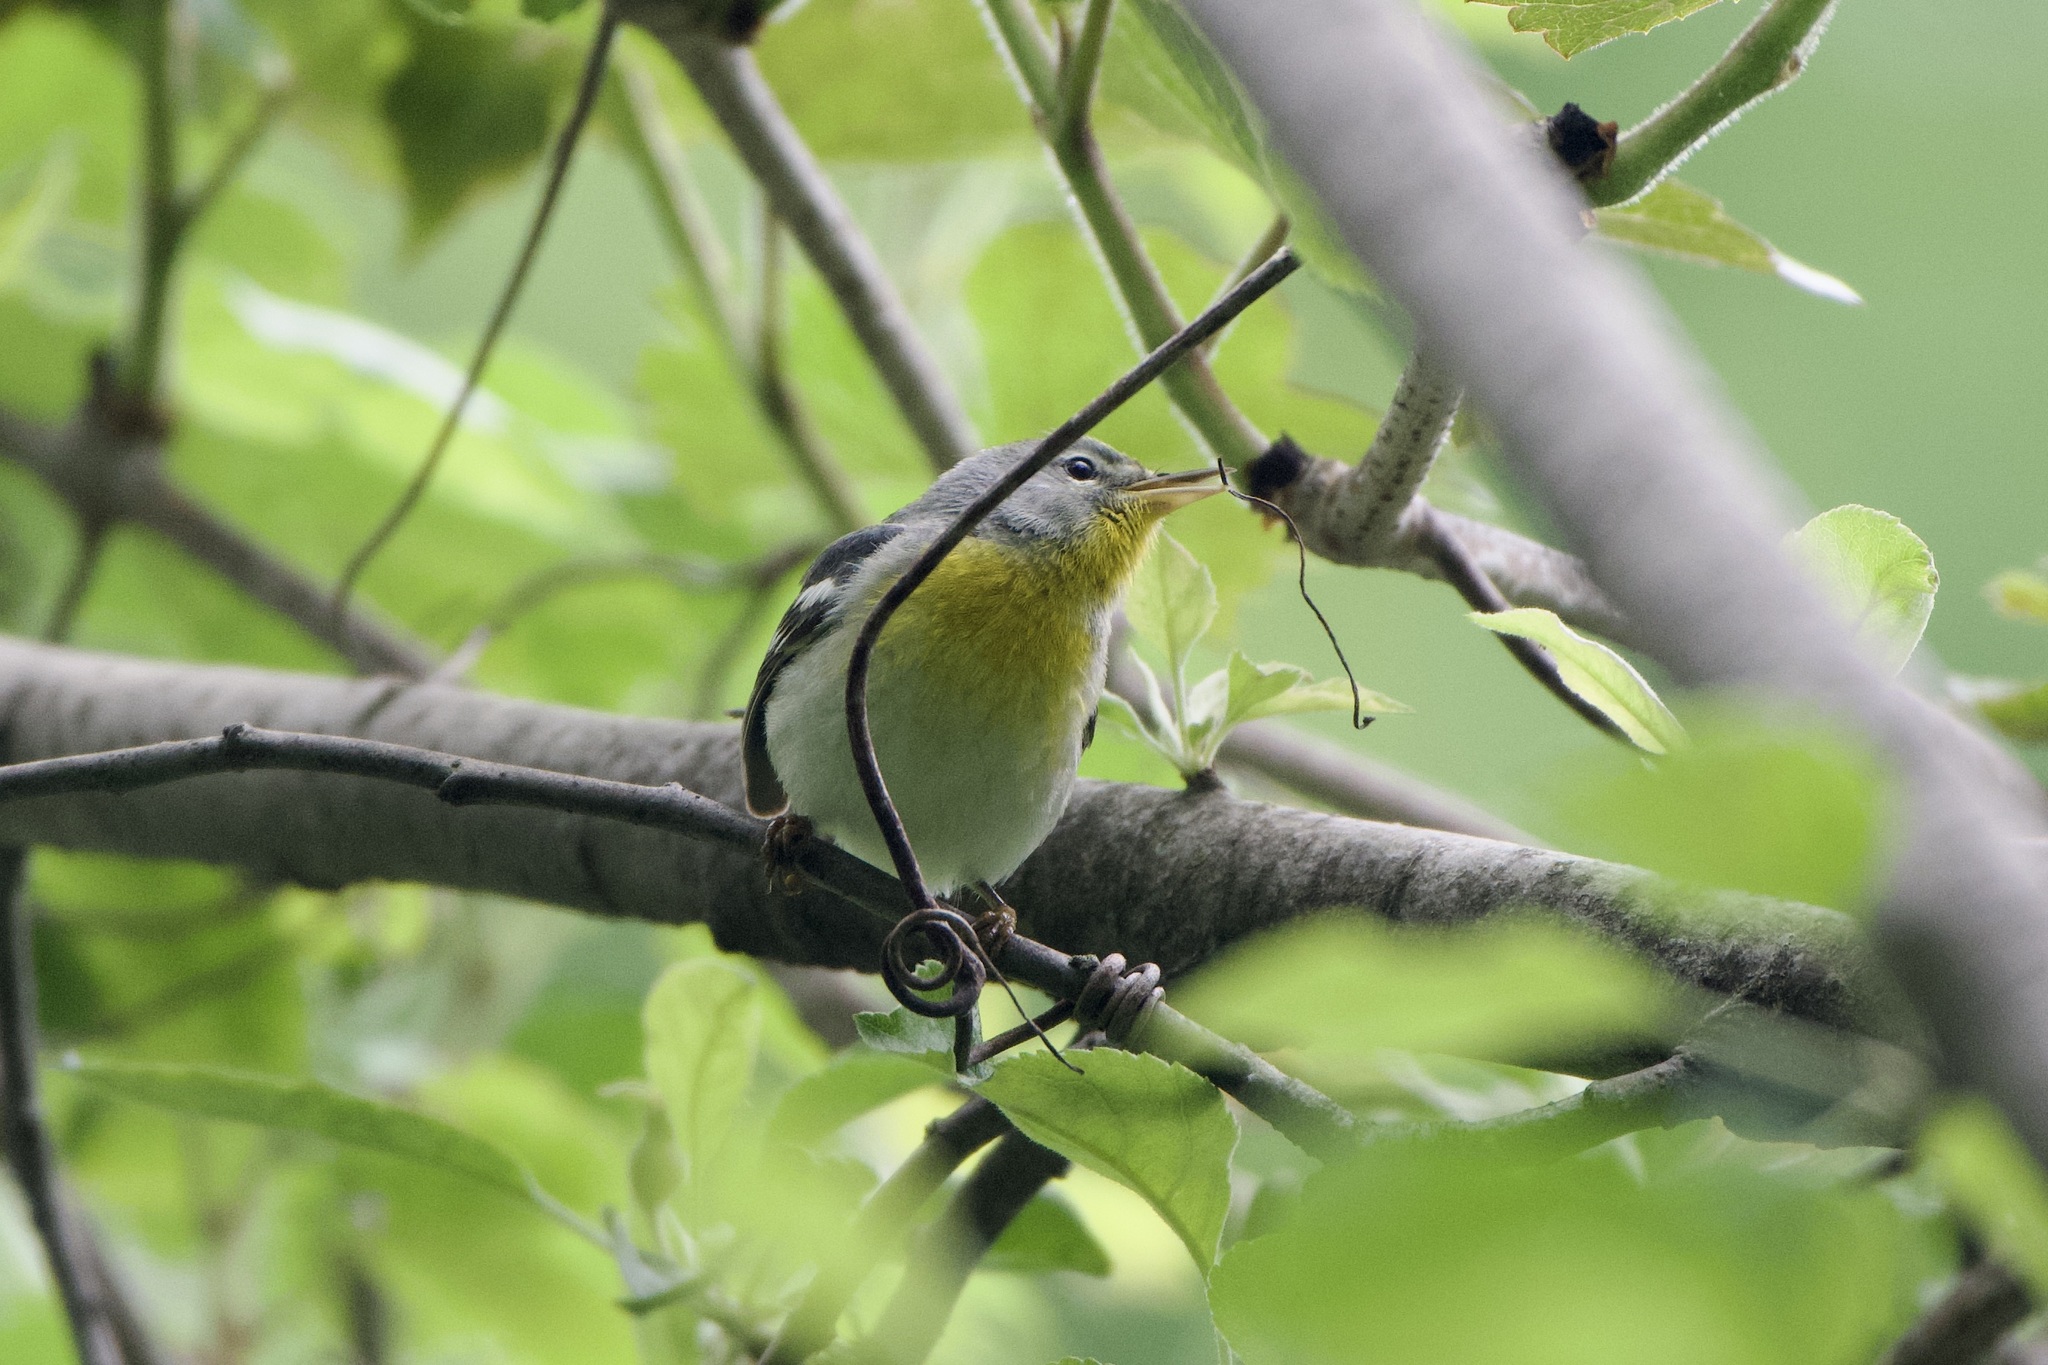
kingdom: Animalia
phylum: Chordata
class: Aves
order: Passeriformes
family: Parulidae
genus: Setophaga
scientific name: Setophaga americana
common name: Northern parula
